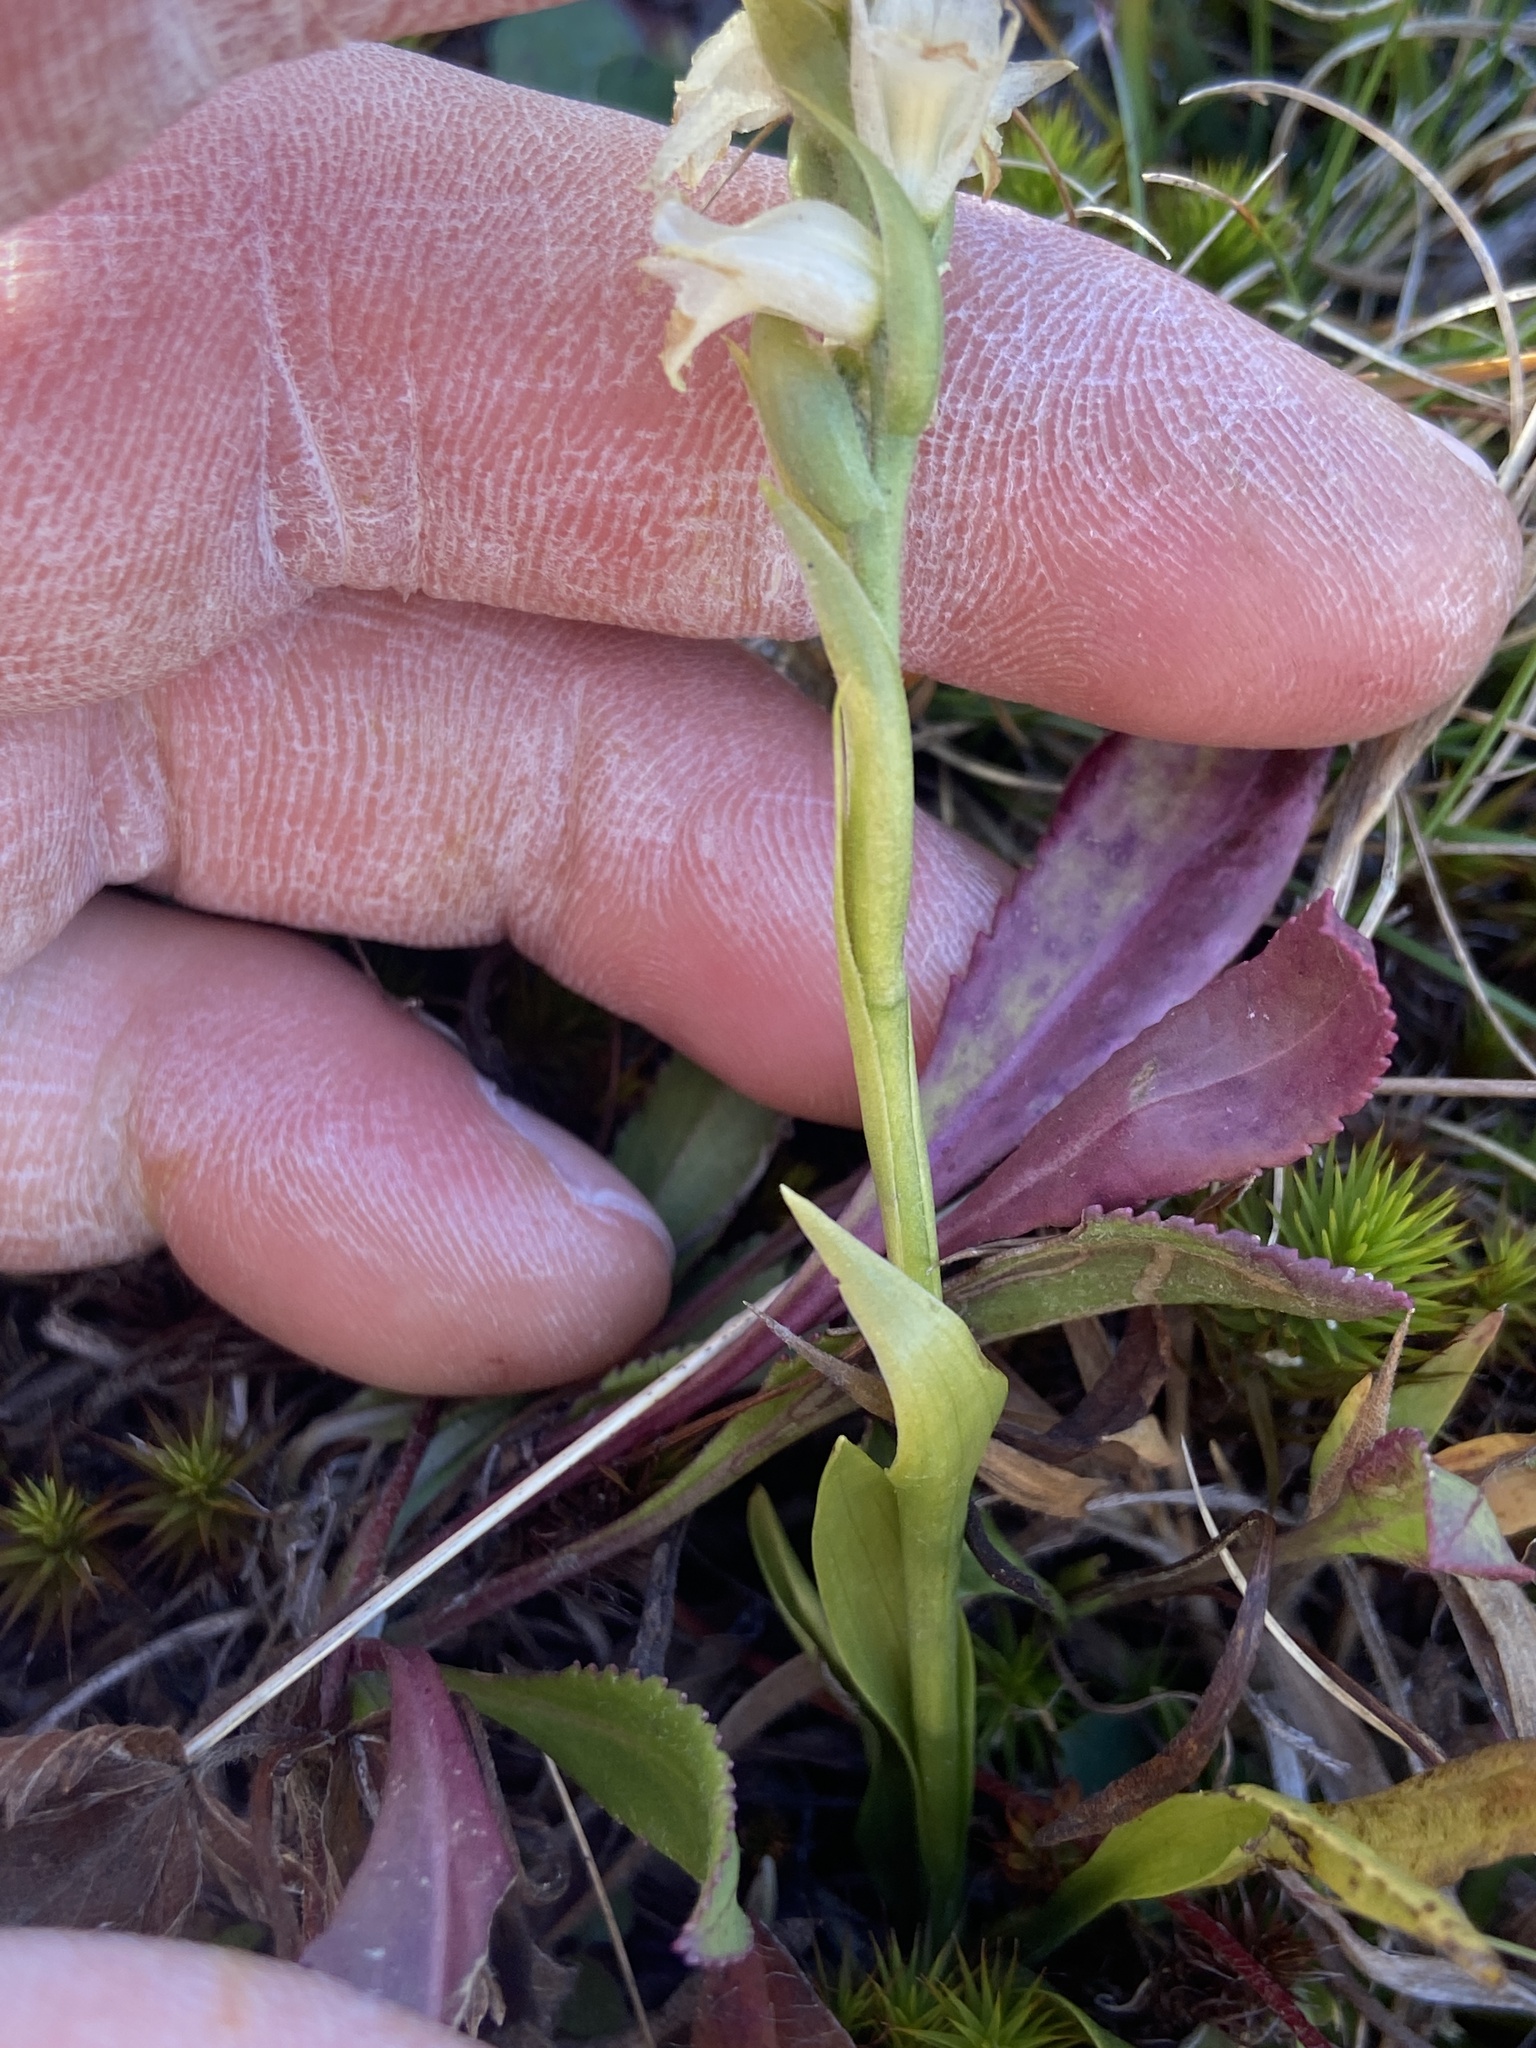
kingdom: Plantae
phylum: Tracheophyta
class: Liliopsida
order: Asparagales
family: Orchidaceae
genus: Spiranthes
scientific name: Spiranthes ochroleuca
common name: Yellow ladies'-tresses
